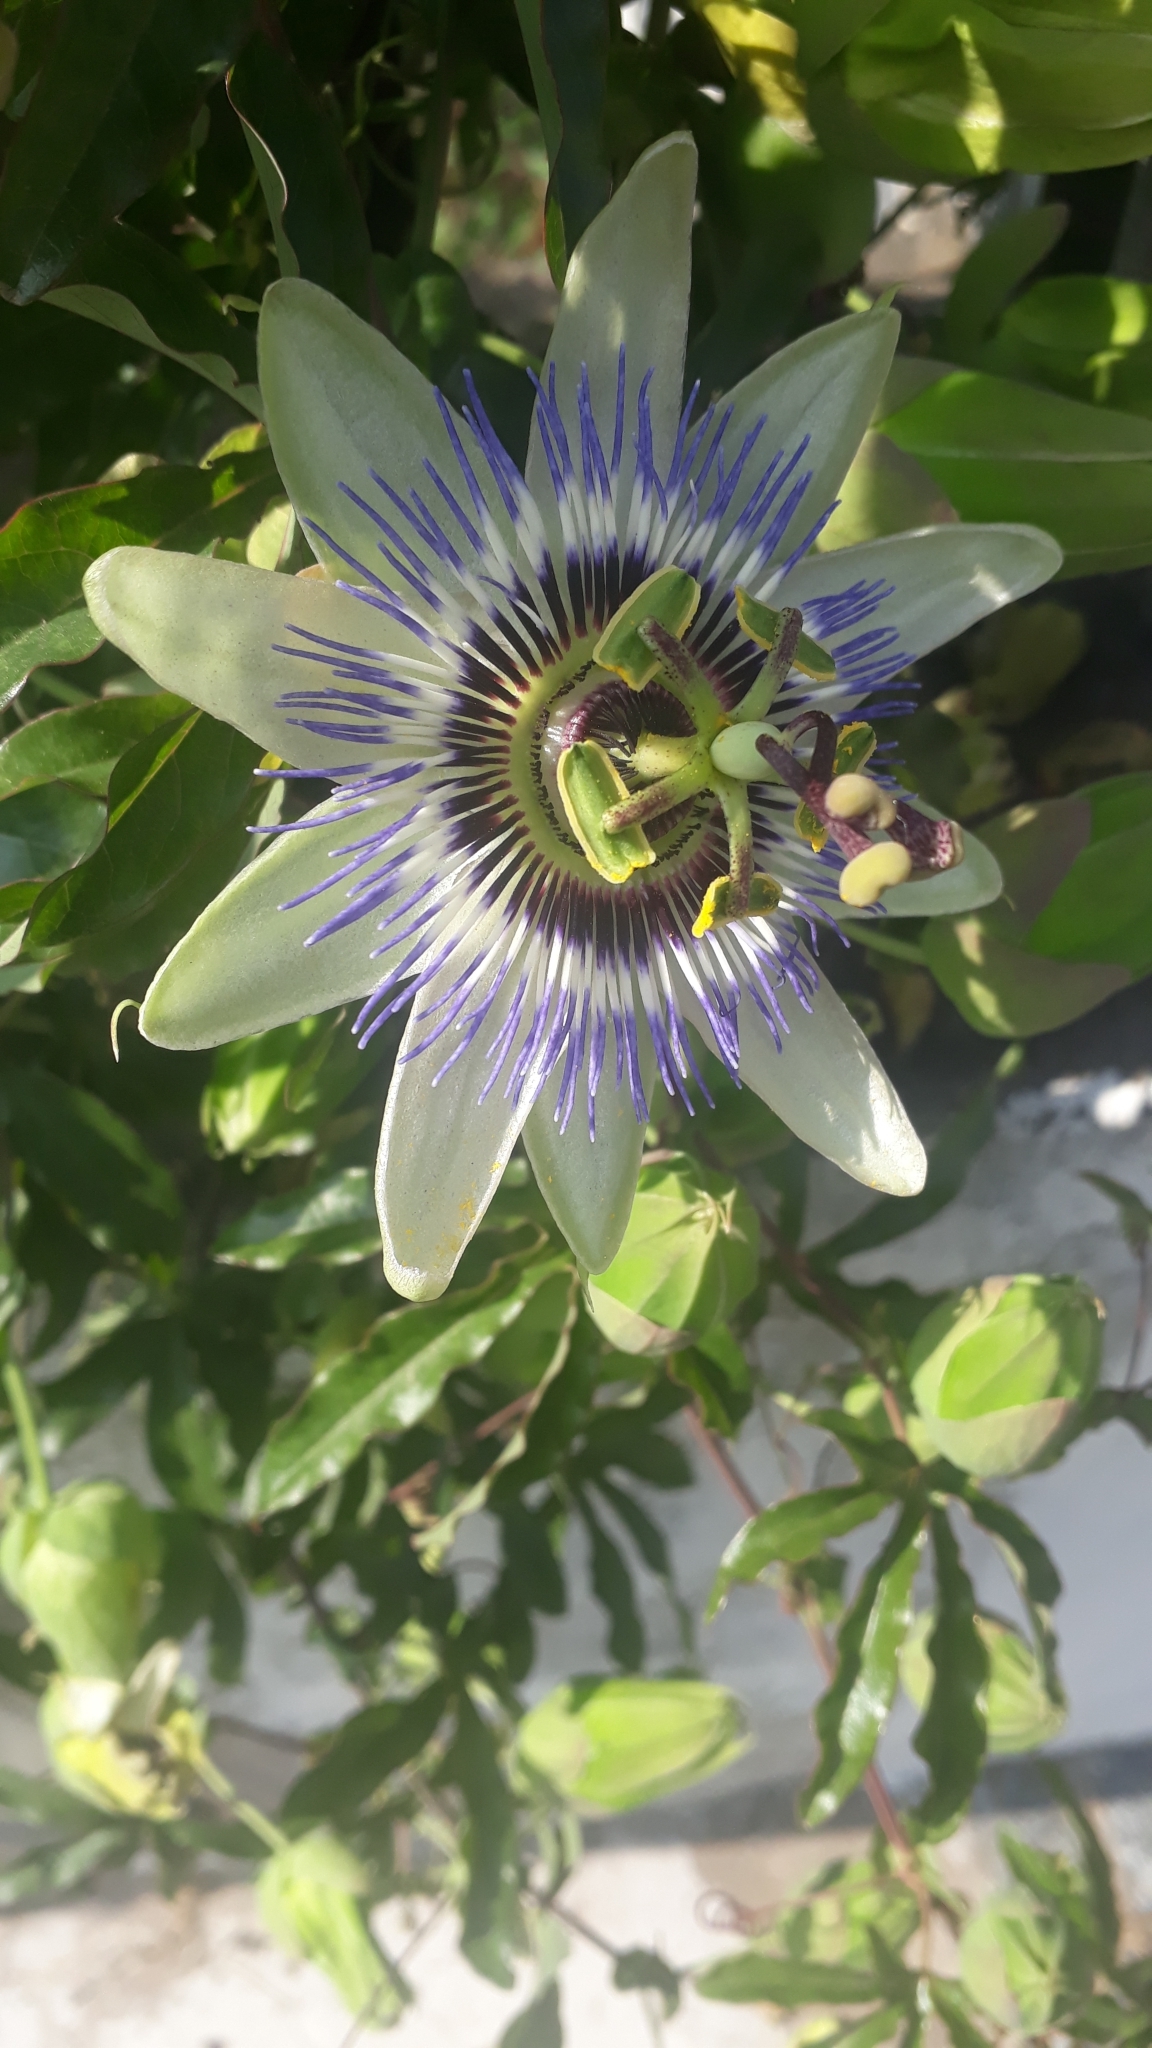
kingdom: Plantae
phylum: Tracheophyta
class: Magnoliopsida
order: Malpighiales
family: Passifloraceae
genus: Passiflora
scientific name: Passiflora caerulea
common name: Blue passionflower
